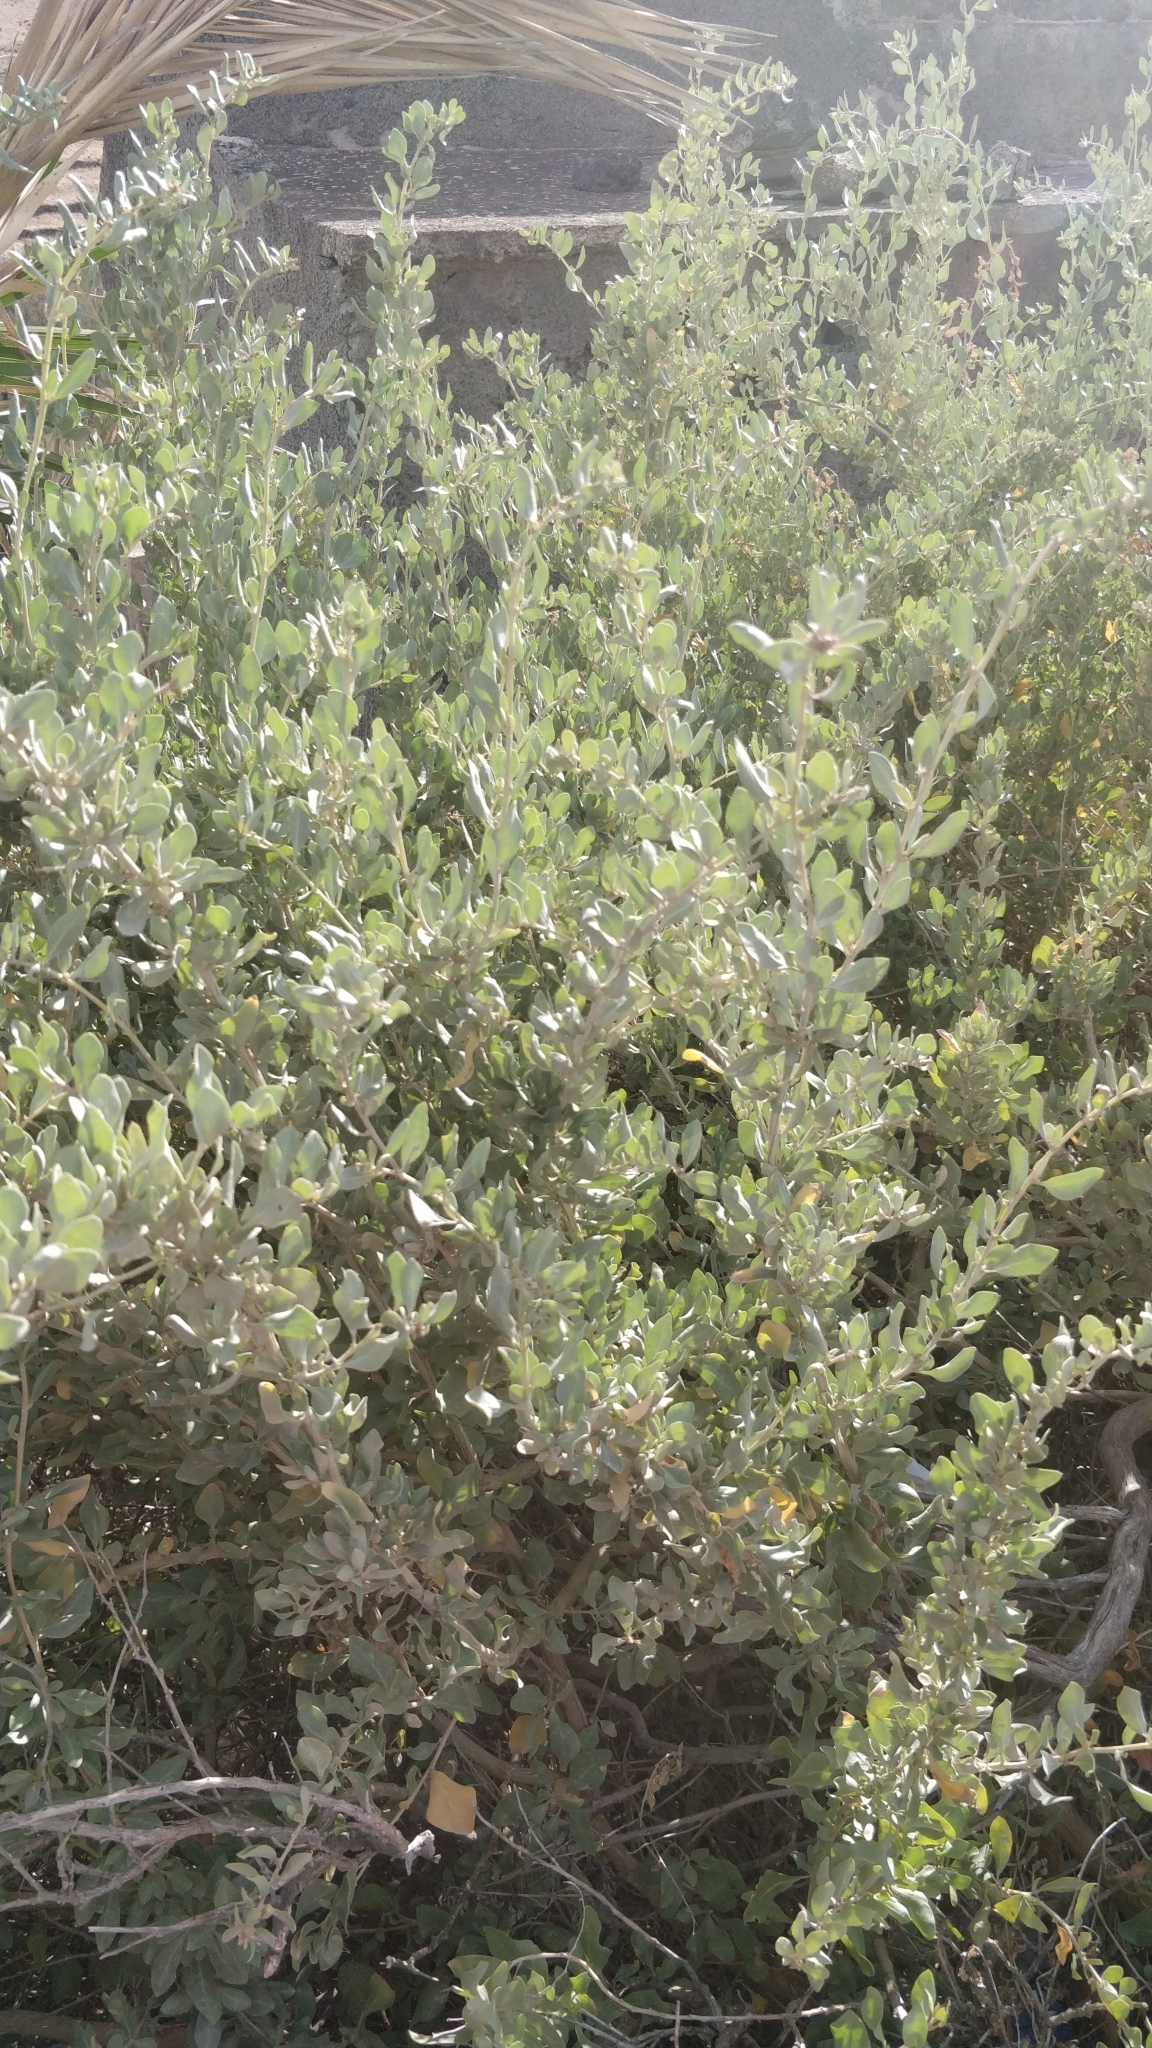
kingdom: Plantae
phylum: Tracheophyta
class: Magnoliopsida
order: Caryophyllales
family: Amaranthaceae
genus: Atriplex
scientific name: Atriplex halimus
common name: Shrubby orache
